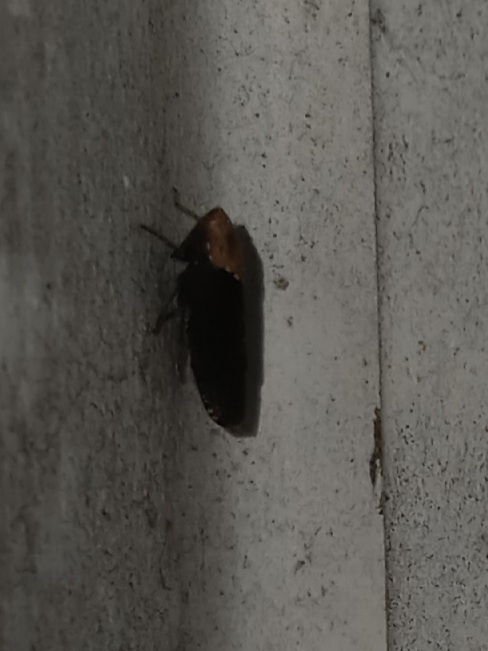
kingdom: Animalia
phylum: Arthropoda
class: Insecta
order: Hemiptera
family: Cicadellidae
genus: Paraphlepsius
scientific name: Paraphlepsius eburneolus
